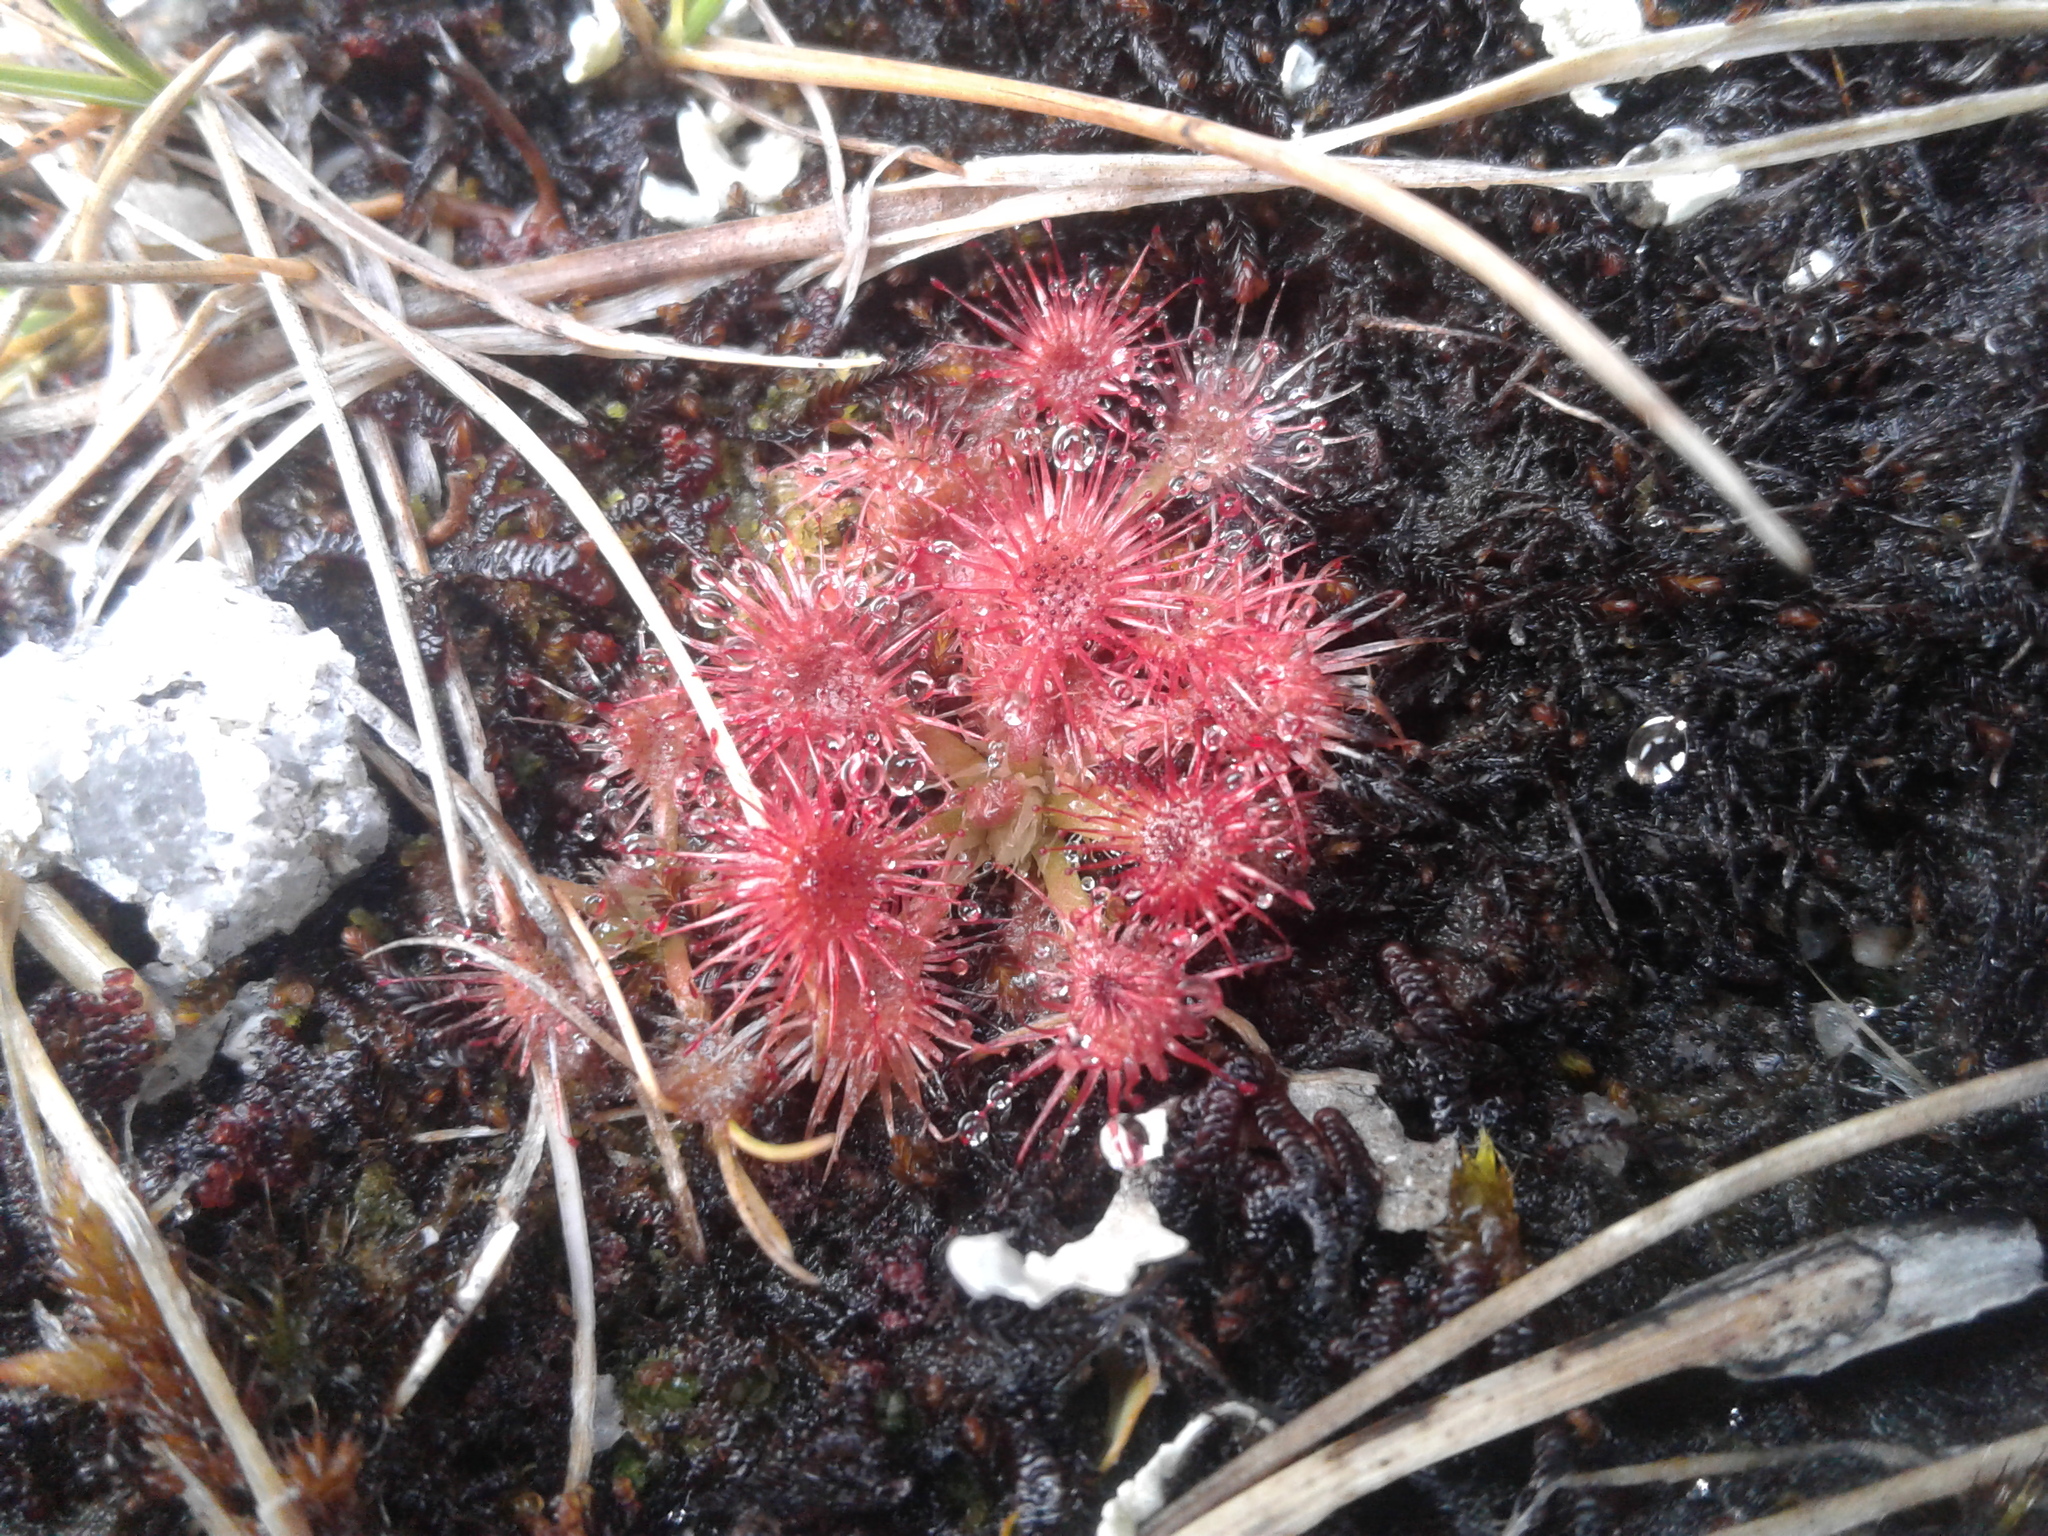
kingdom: Plantae
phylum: Tracheophyta
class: Magnoliopsida
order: Caryophyllales
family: Droseraceae
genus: Drosera
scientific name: Drosera spatulata
